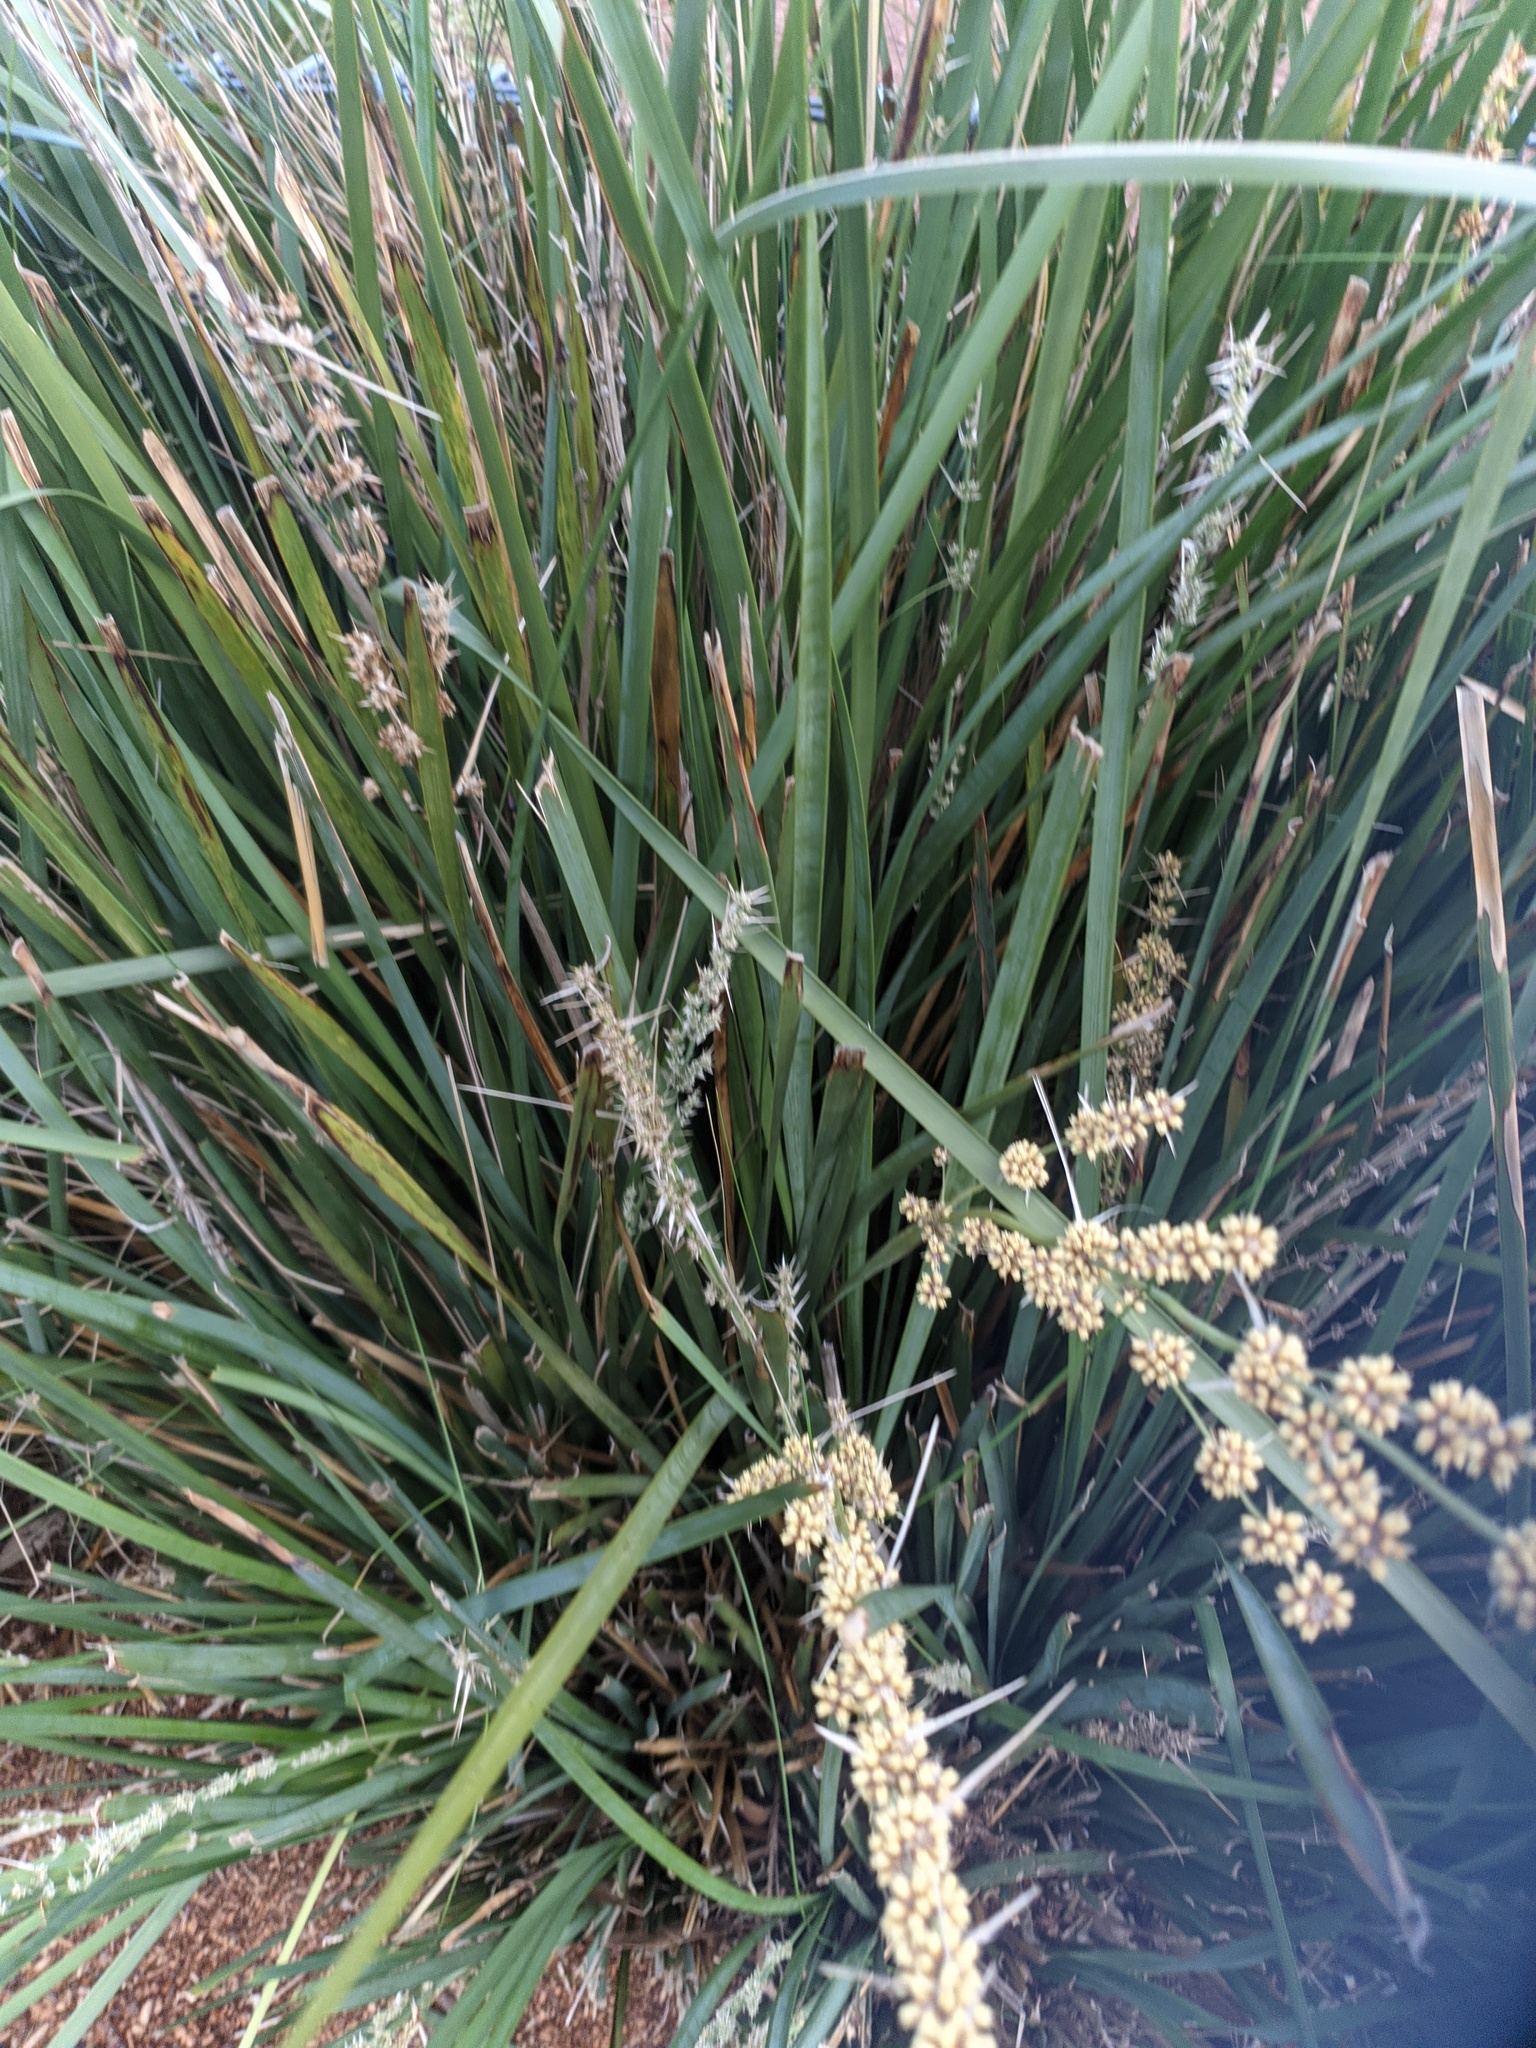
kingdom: Plantae
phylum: Tracheophyta
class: Liliopsida
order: Asparagales
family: Asparagaceae
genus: Lomandra
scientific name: Lomandra longifolia
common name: Longleaf mat-rush
